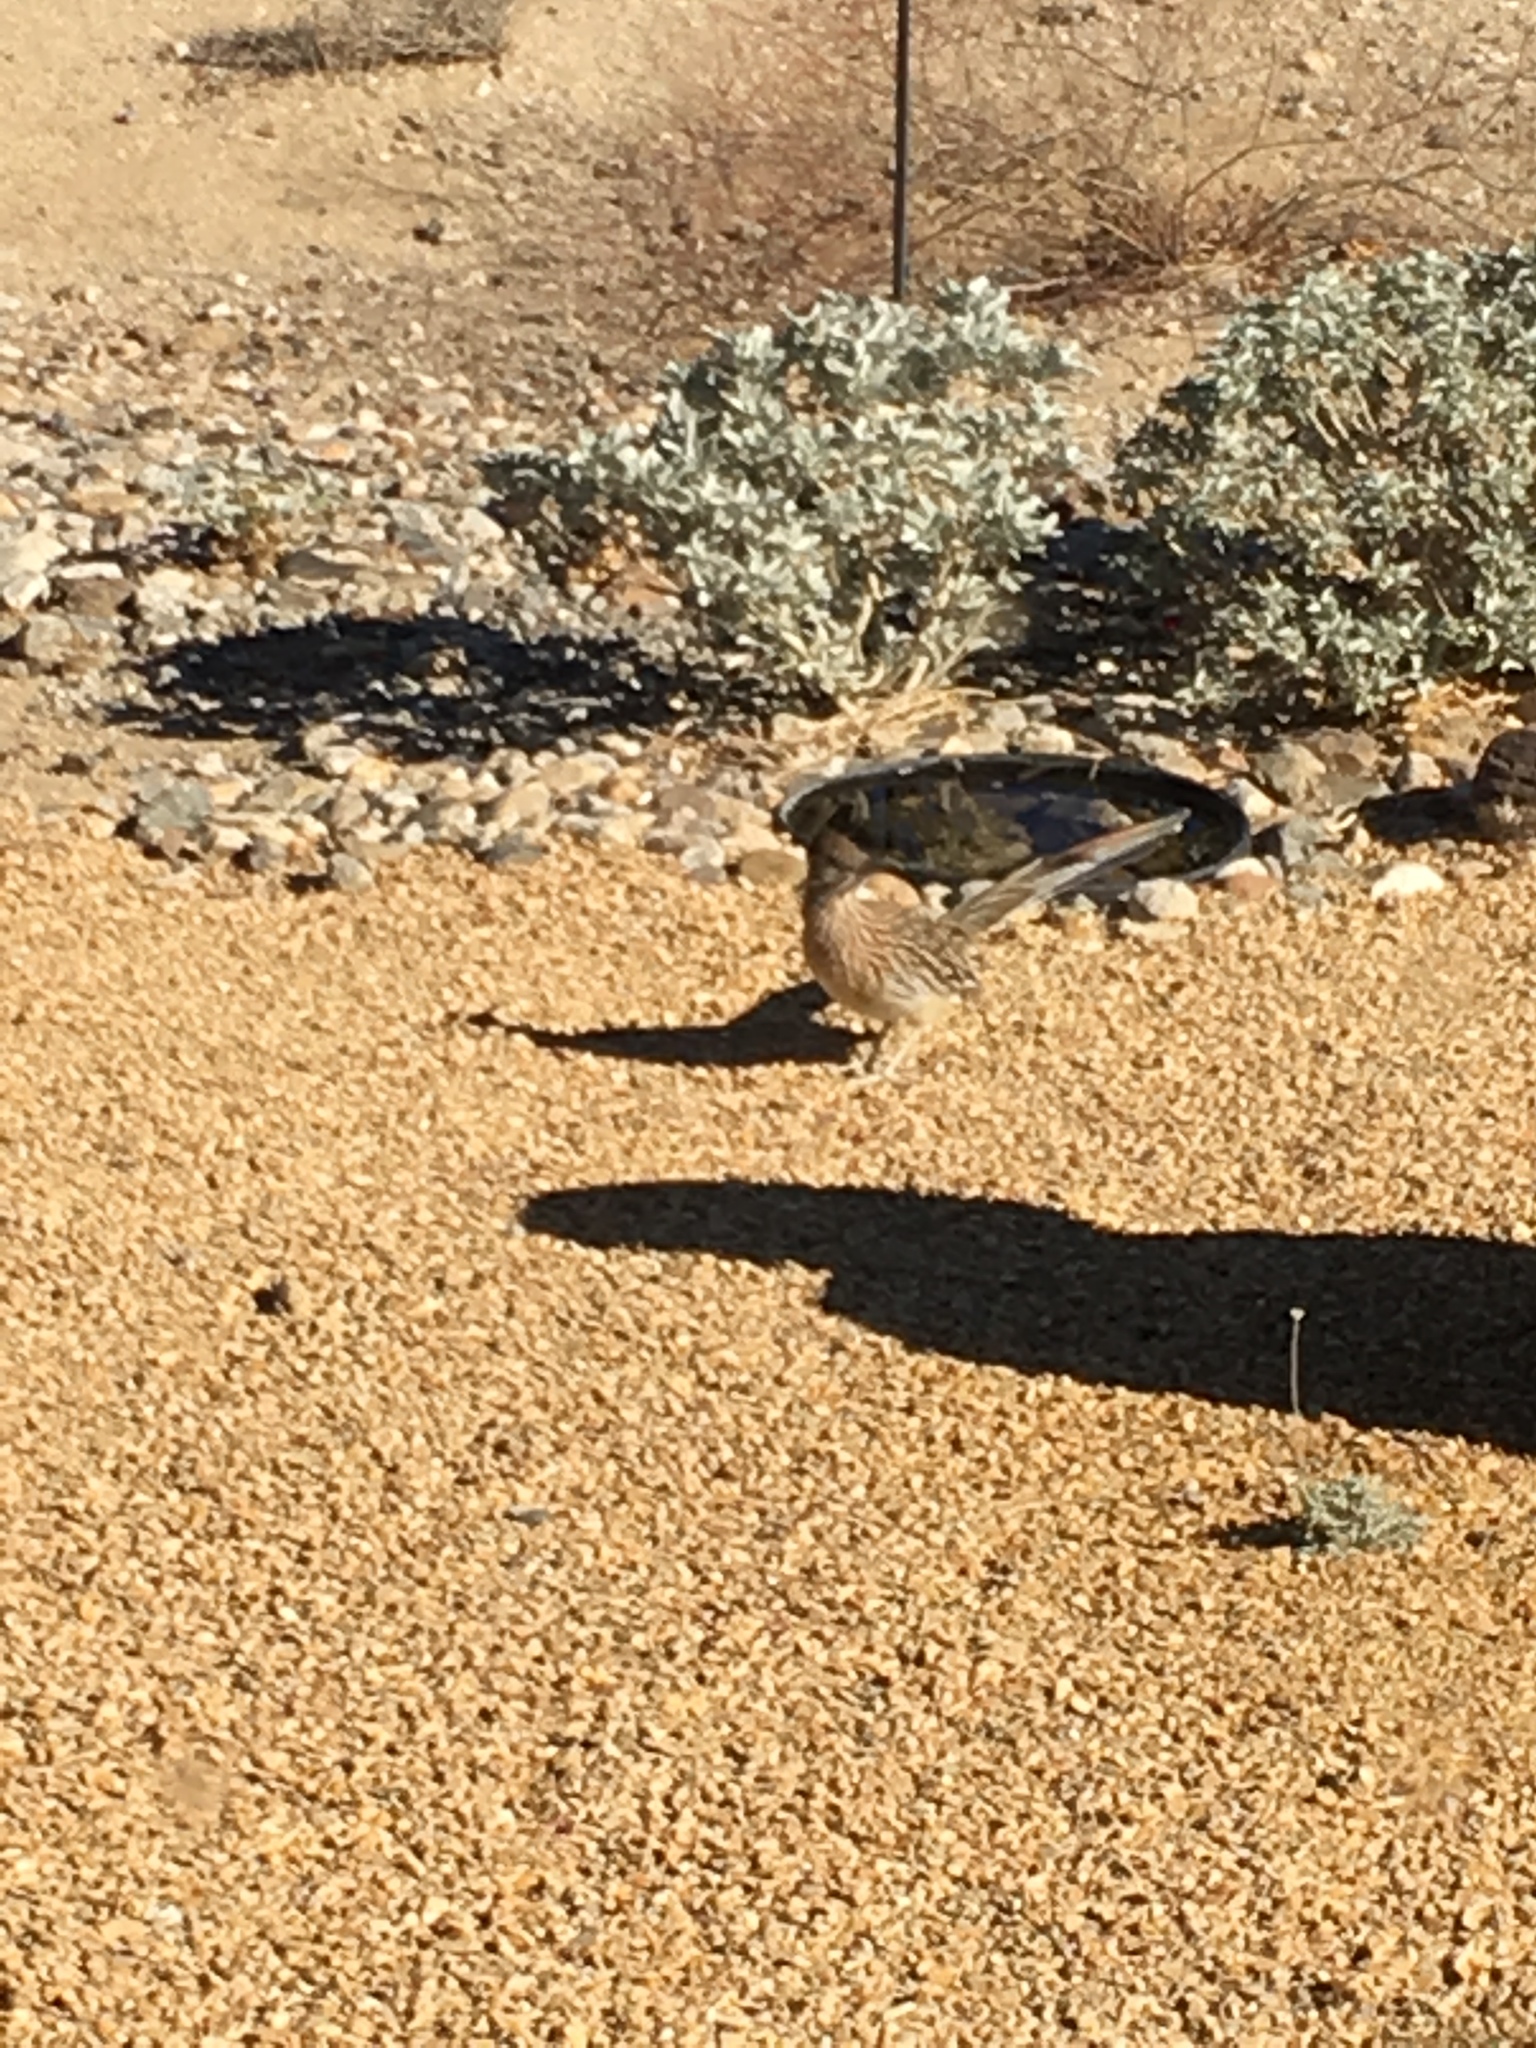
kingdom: Animalia
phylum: Chordata
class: Aves
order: Cuculiformes
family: Cuculidae
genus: Geococcyx
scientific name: Geococcyx californianus
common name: Greater roadrunner
